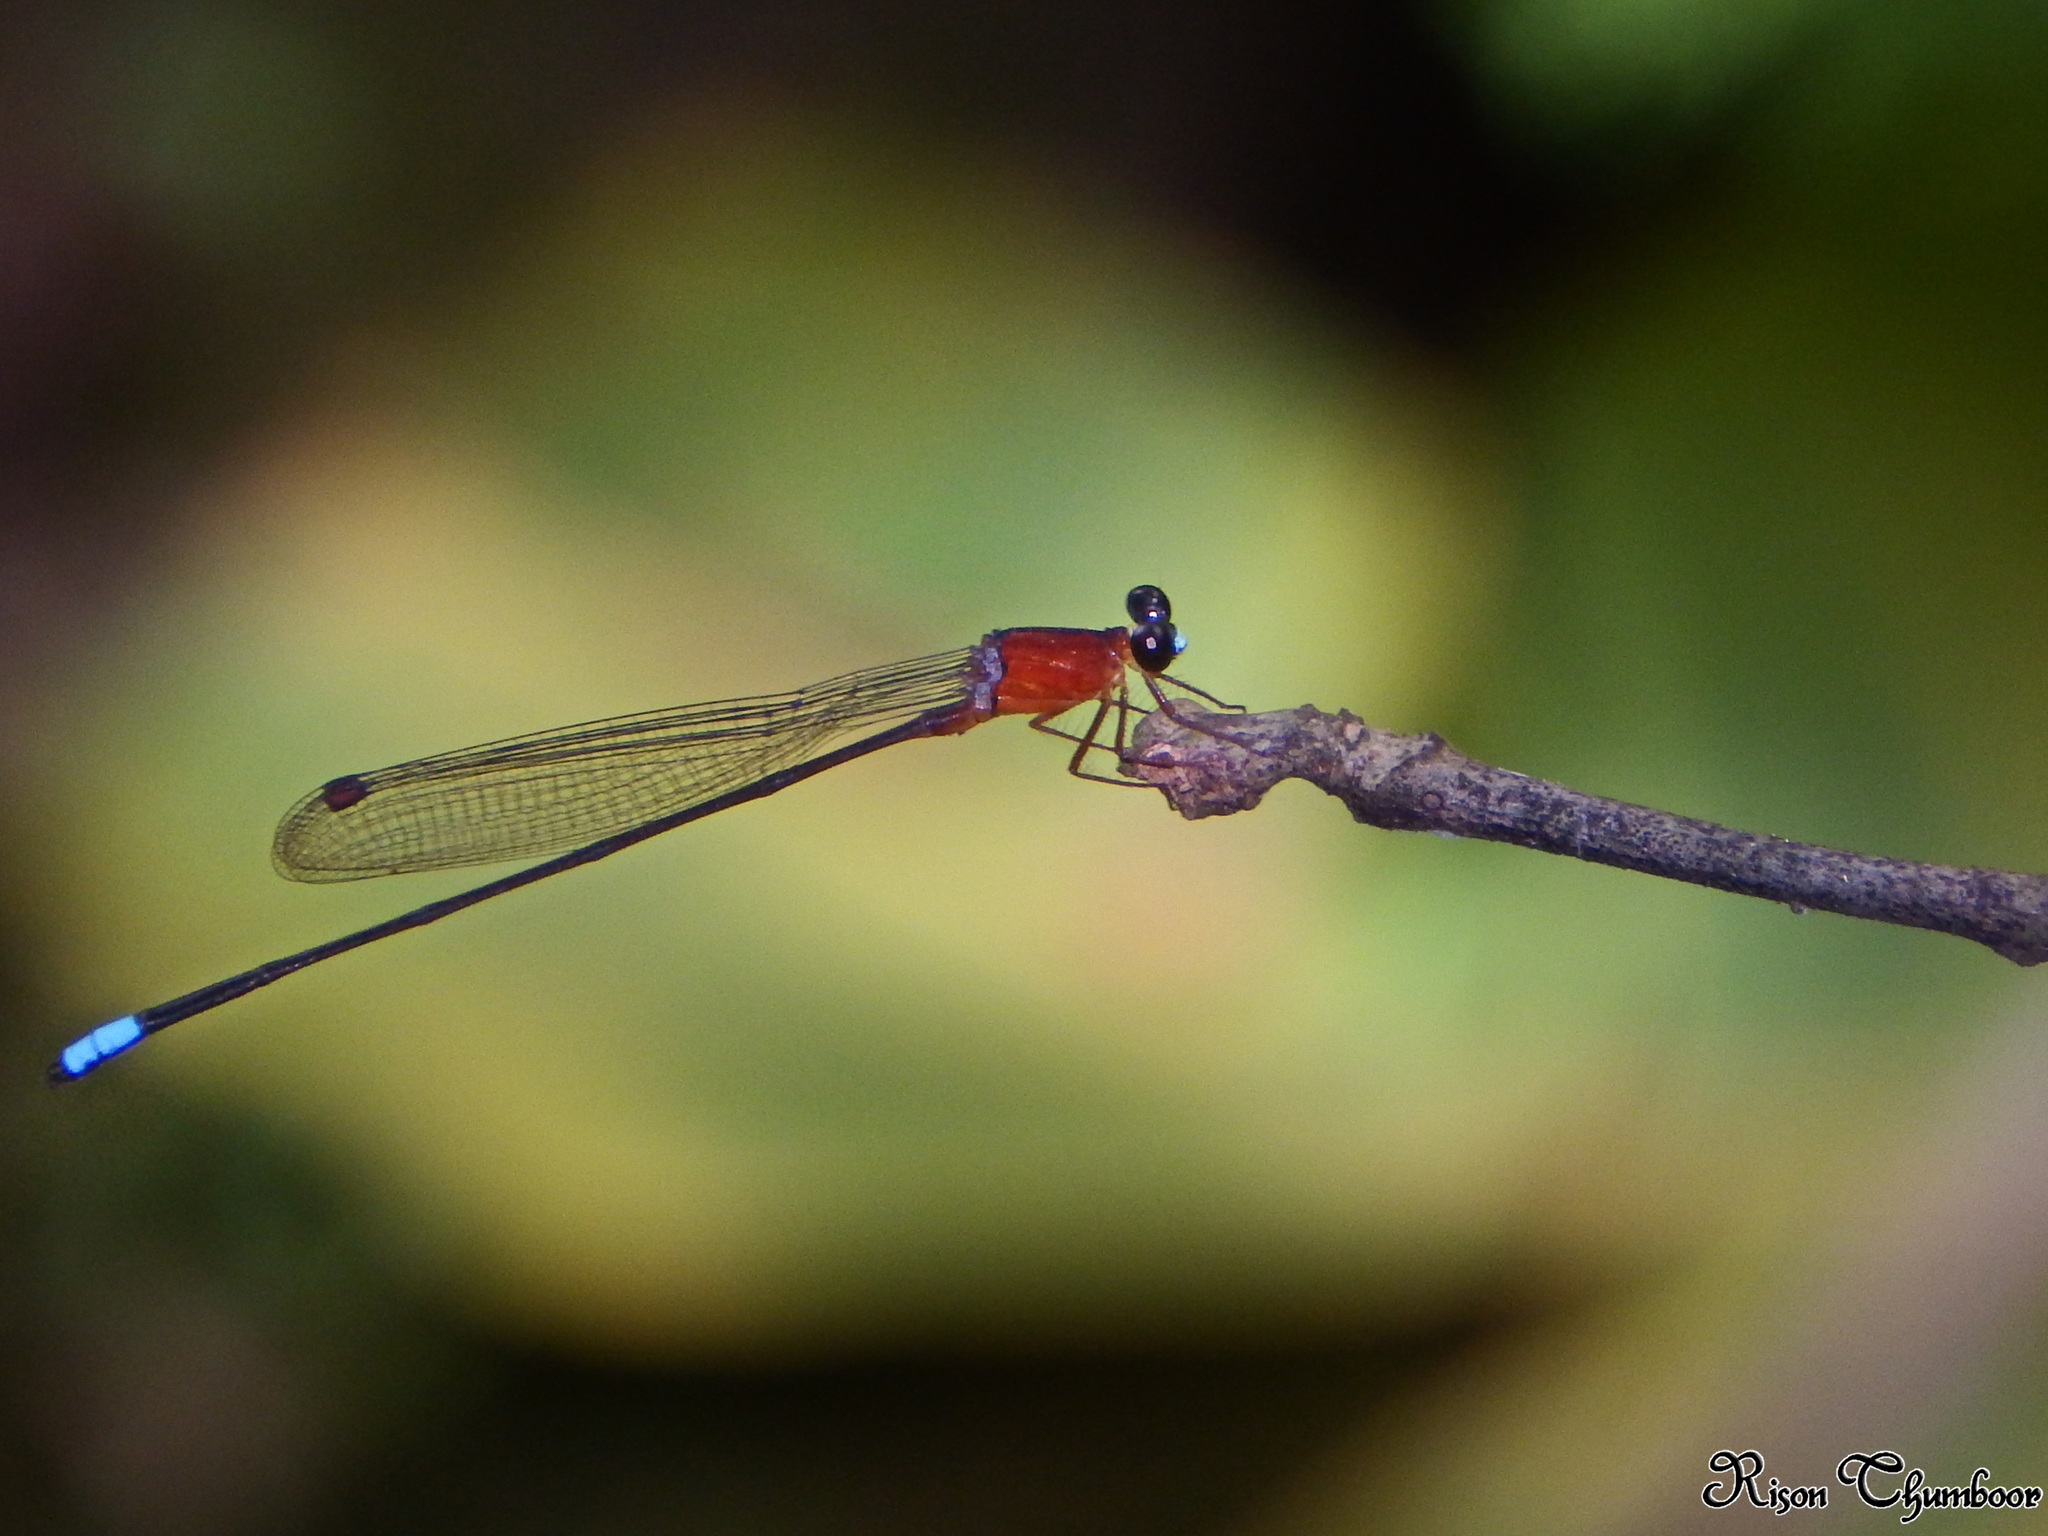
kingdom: Animalia
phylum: Arthropoda
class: Insecta
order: Odonata
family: Platystictidae
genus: Indosticta
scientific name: Indosticta deccanensis
